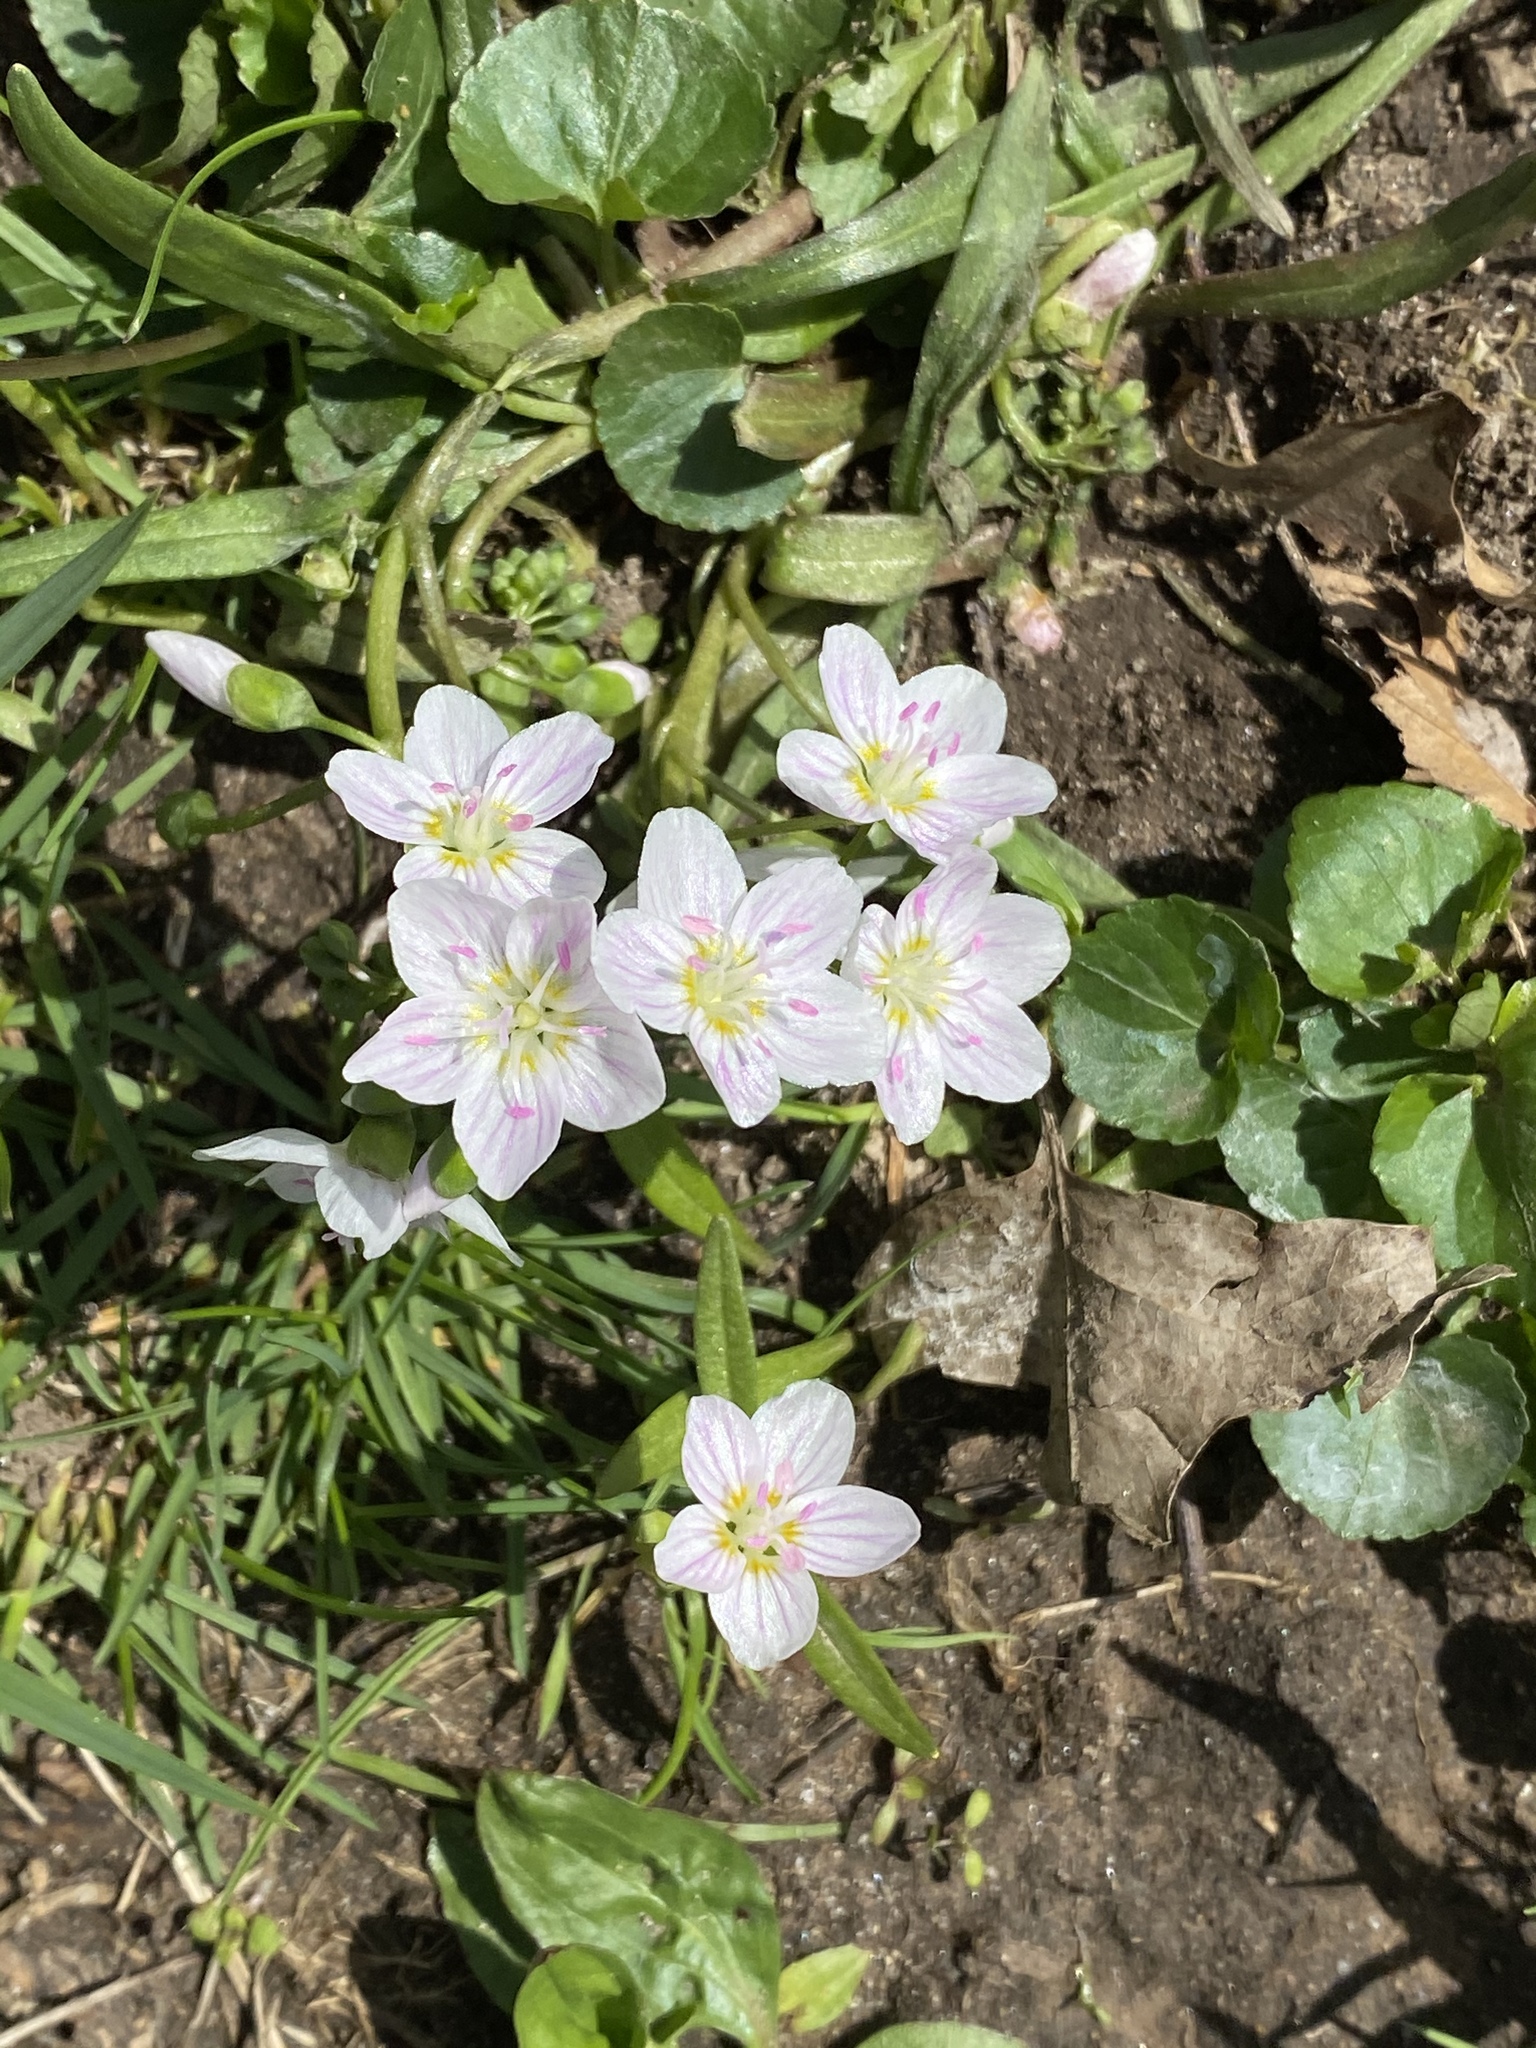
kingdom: Plantae
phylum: Tracheophyta
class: Magnoliopsida
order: Caryophyllales
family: Montiaceae
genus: Claytonia
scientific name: Claytonia virginica
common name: Virginia springbeauty
